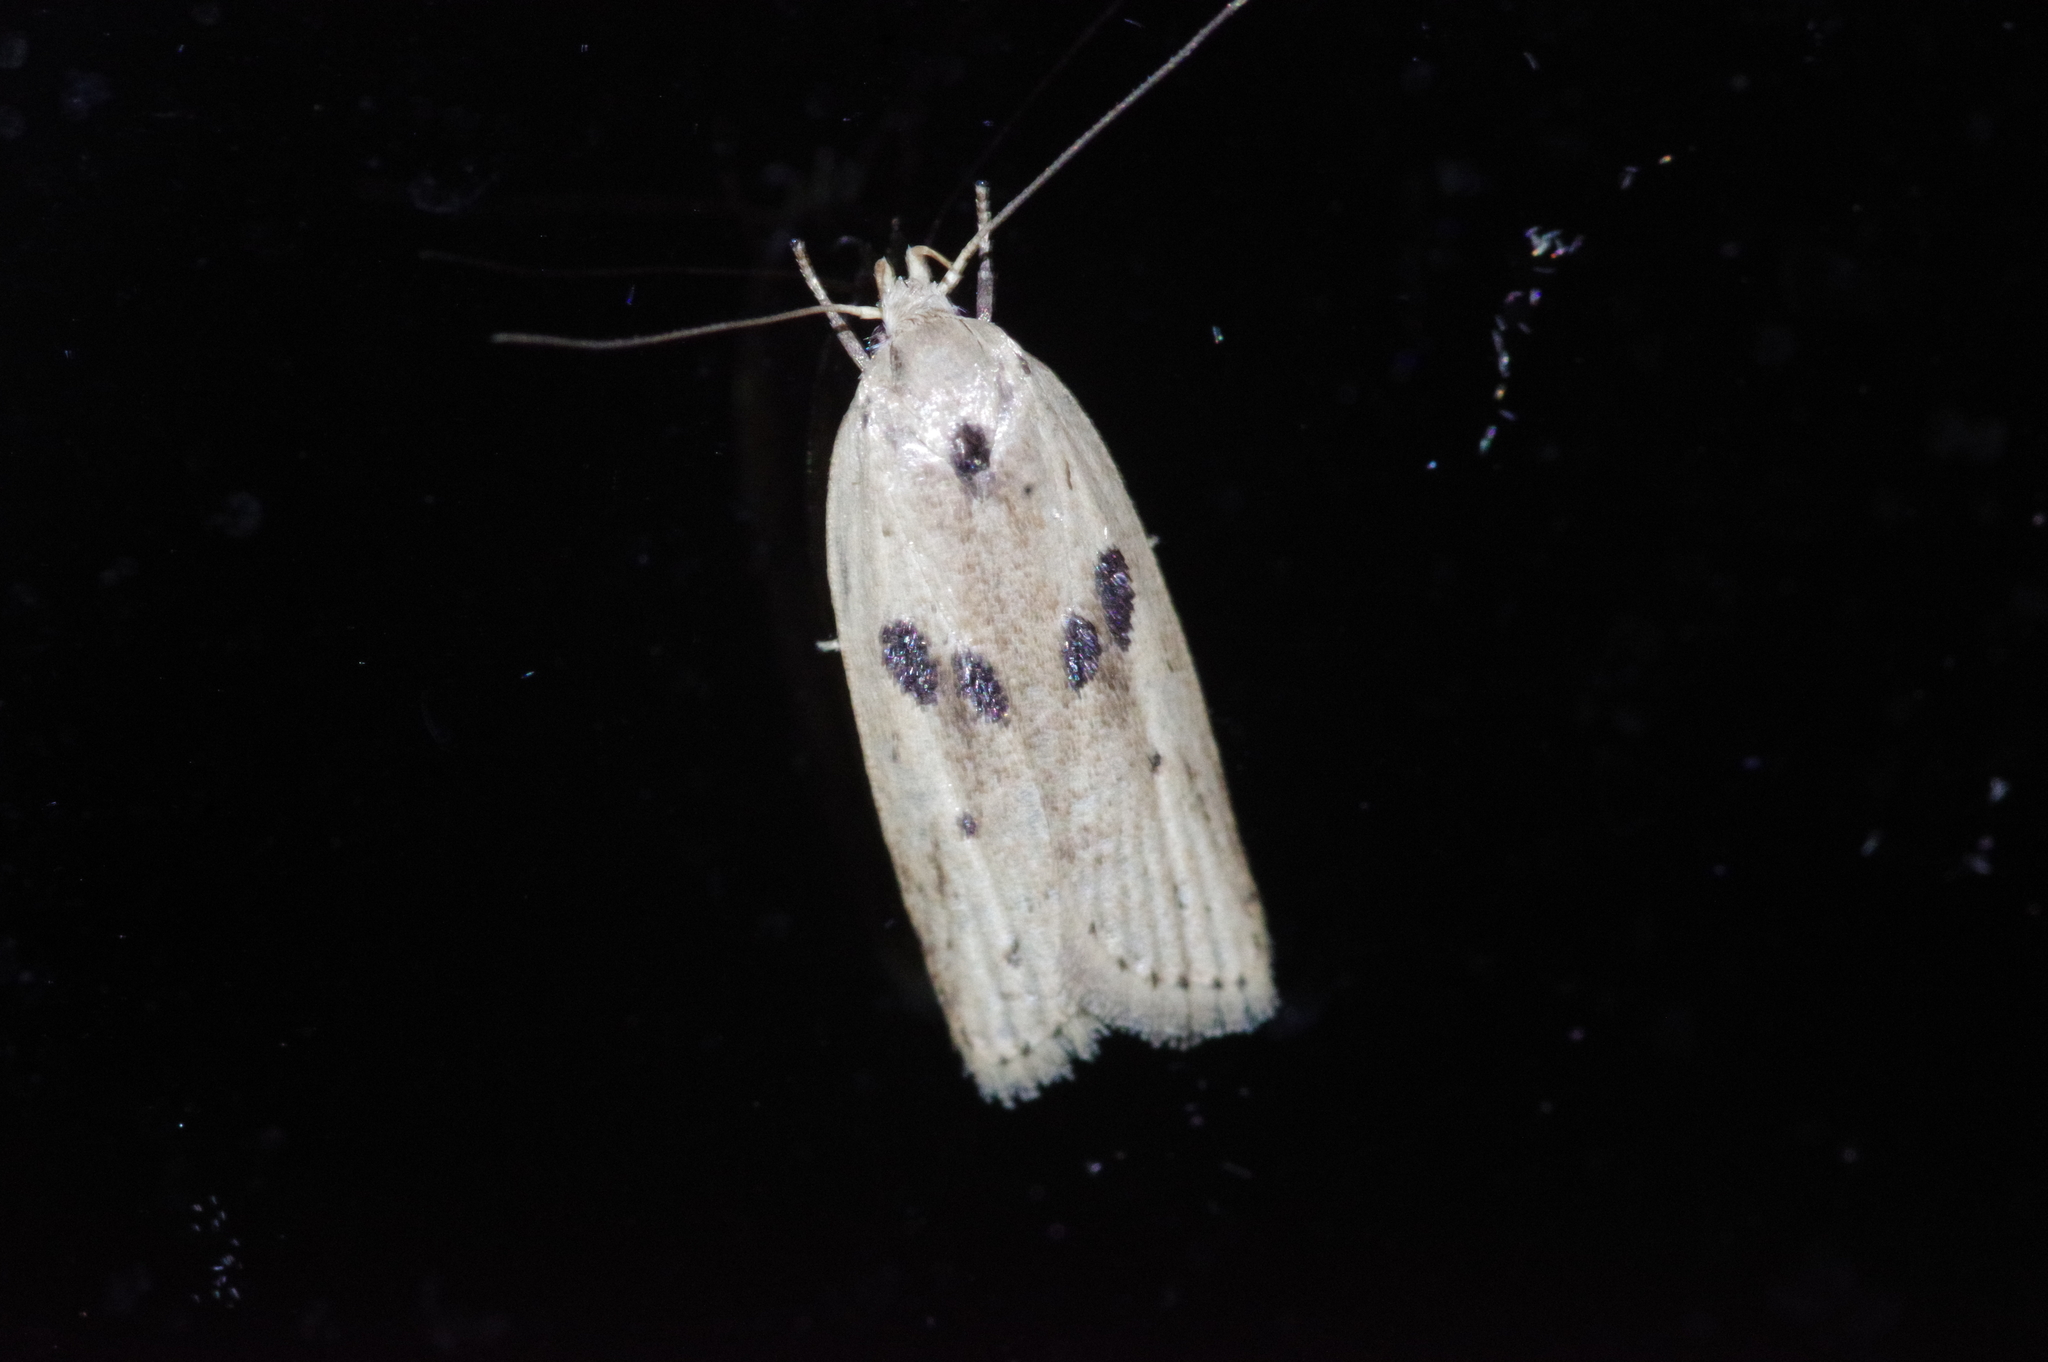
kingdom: Animalia
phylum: Arthropoda
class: Insecta
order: Lepidoptera
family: Peleopodidae
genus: Scythropiodes
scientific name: Scythropiodes issikii
